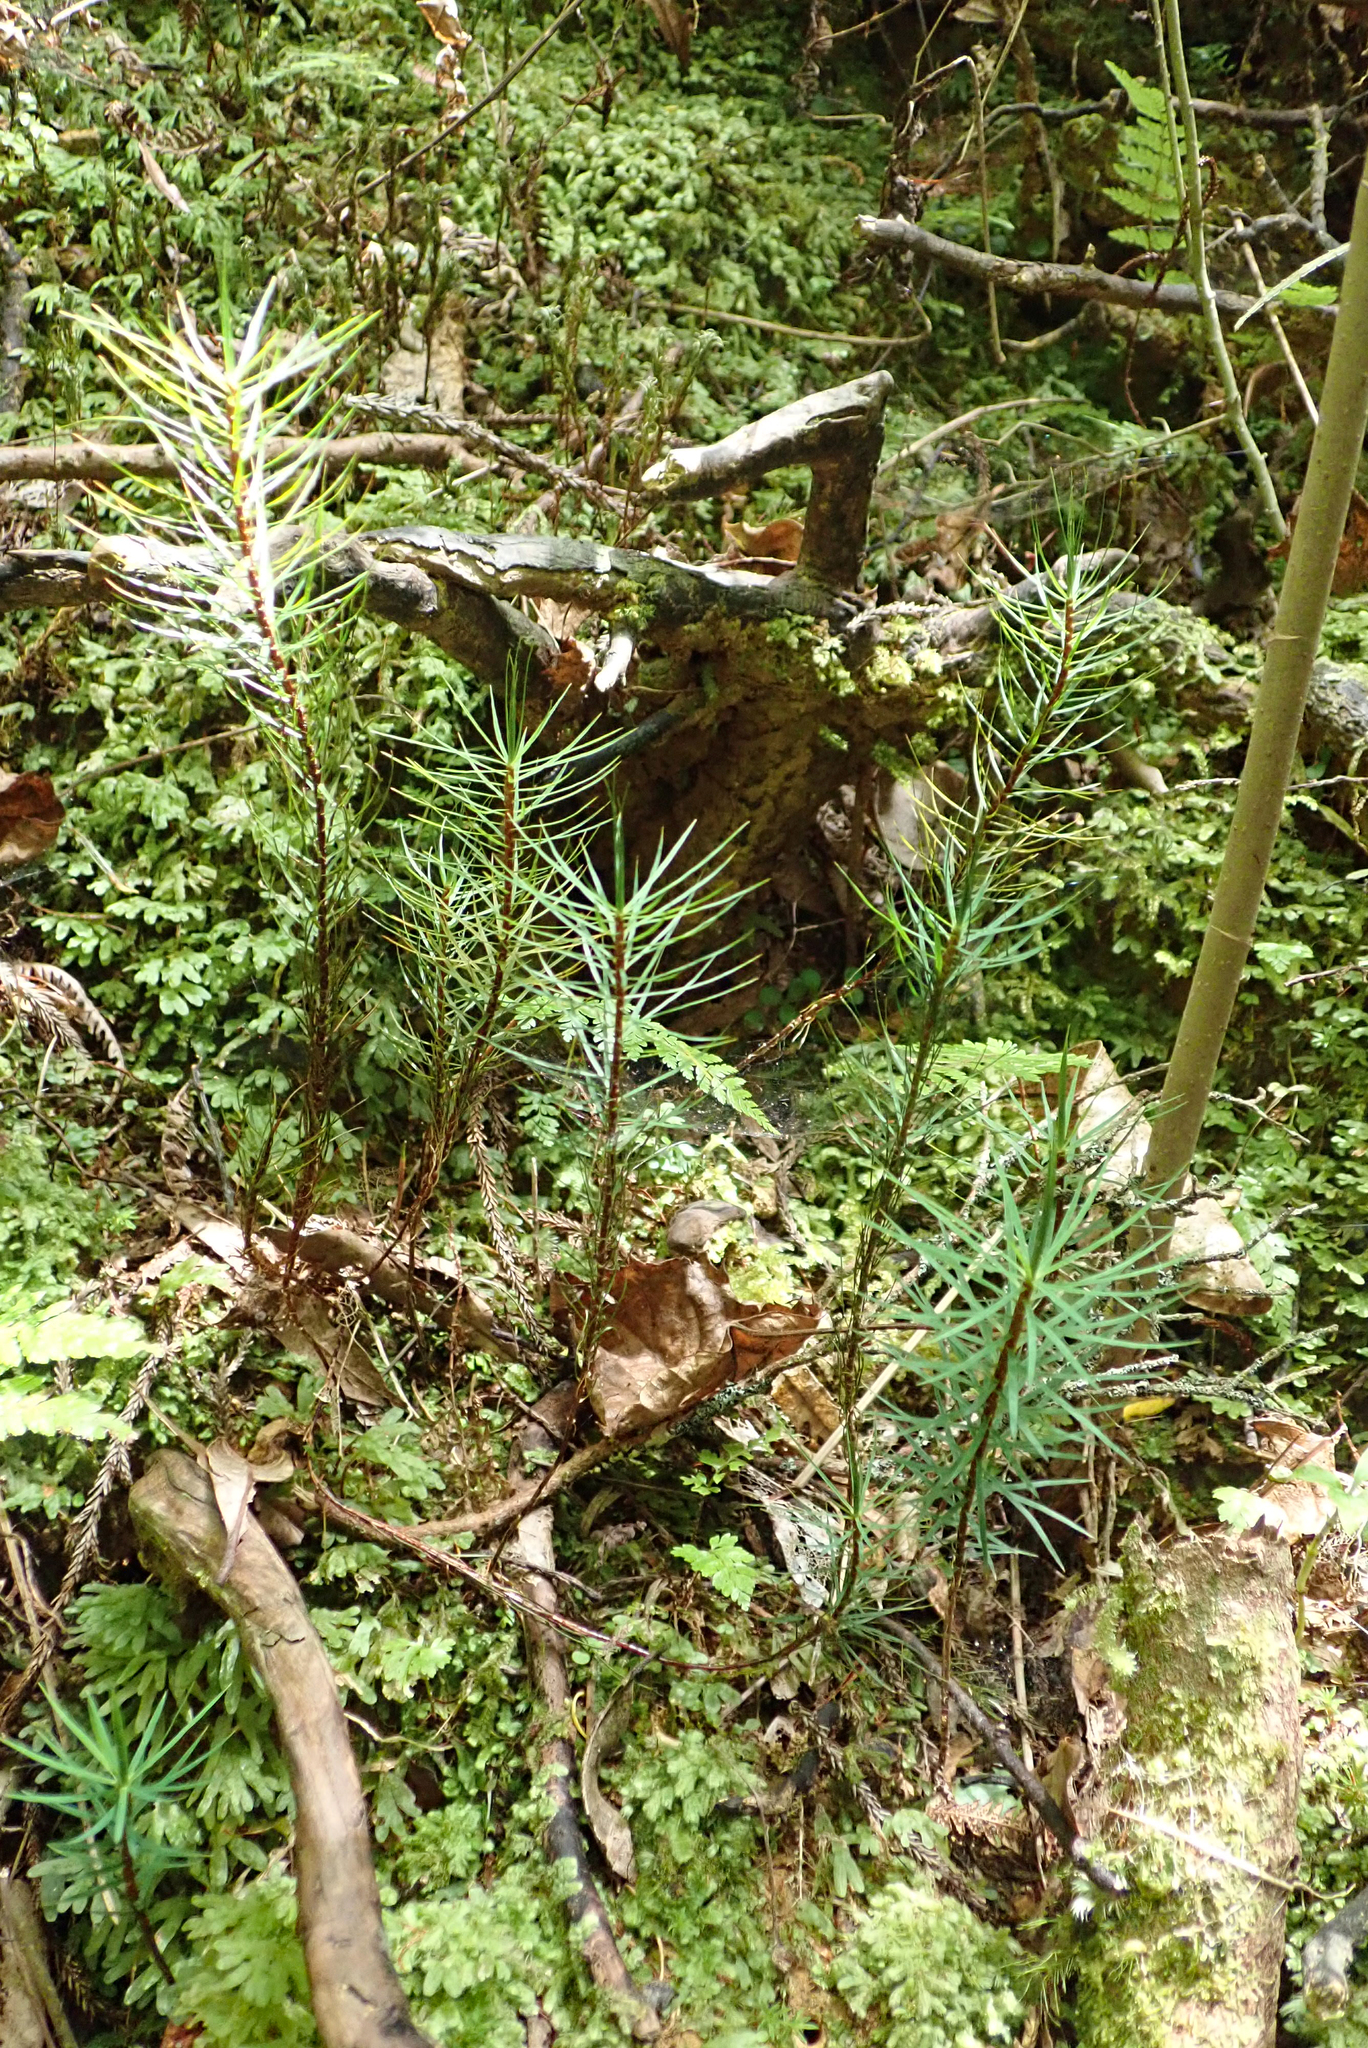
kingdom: Plantae
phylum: Bryophyta
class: Polytrichopsida
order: Polytrichales
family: Polytrichaceae
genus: Dawsonia
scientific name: Dawsonia superba
